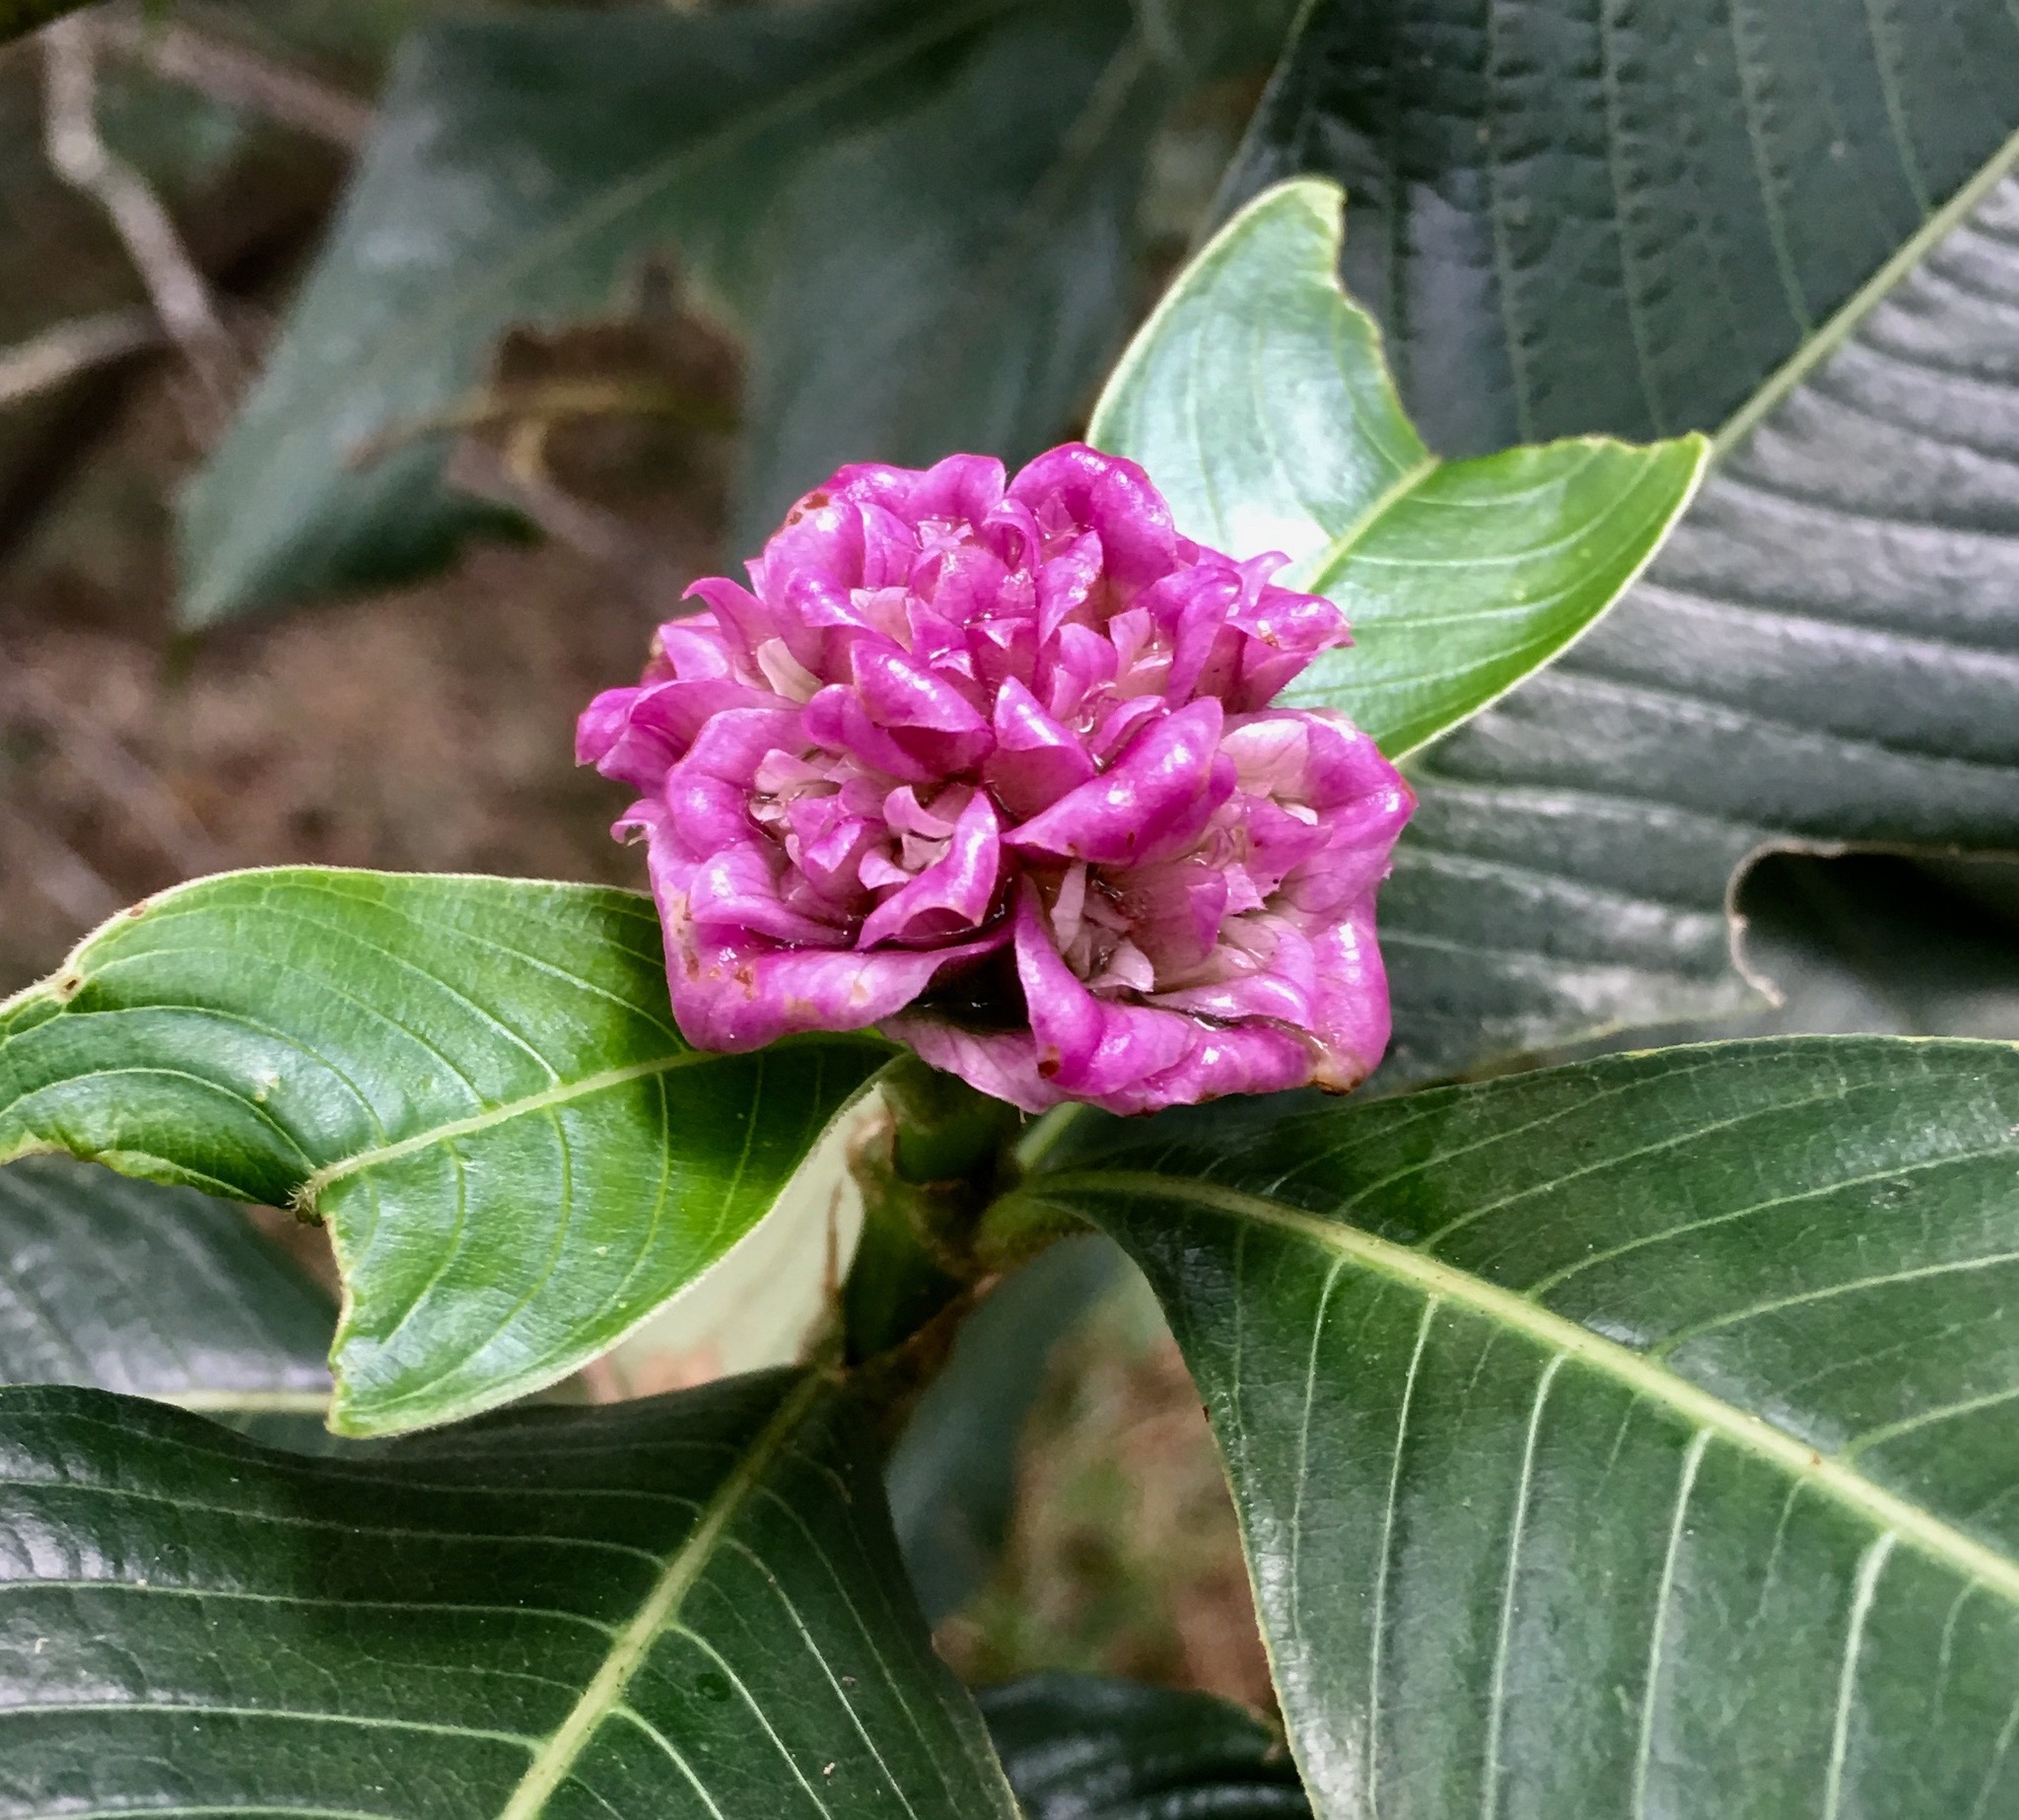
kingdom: Plantae
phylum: Tracheophyta
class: Magnoliopsida
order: Gentianales
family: Rubiaceae
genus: Palicourea
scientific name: Palicourea colorata
